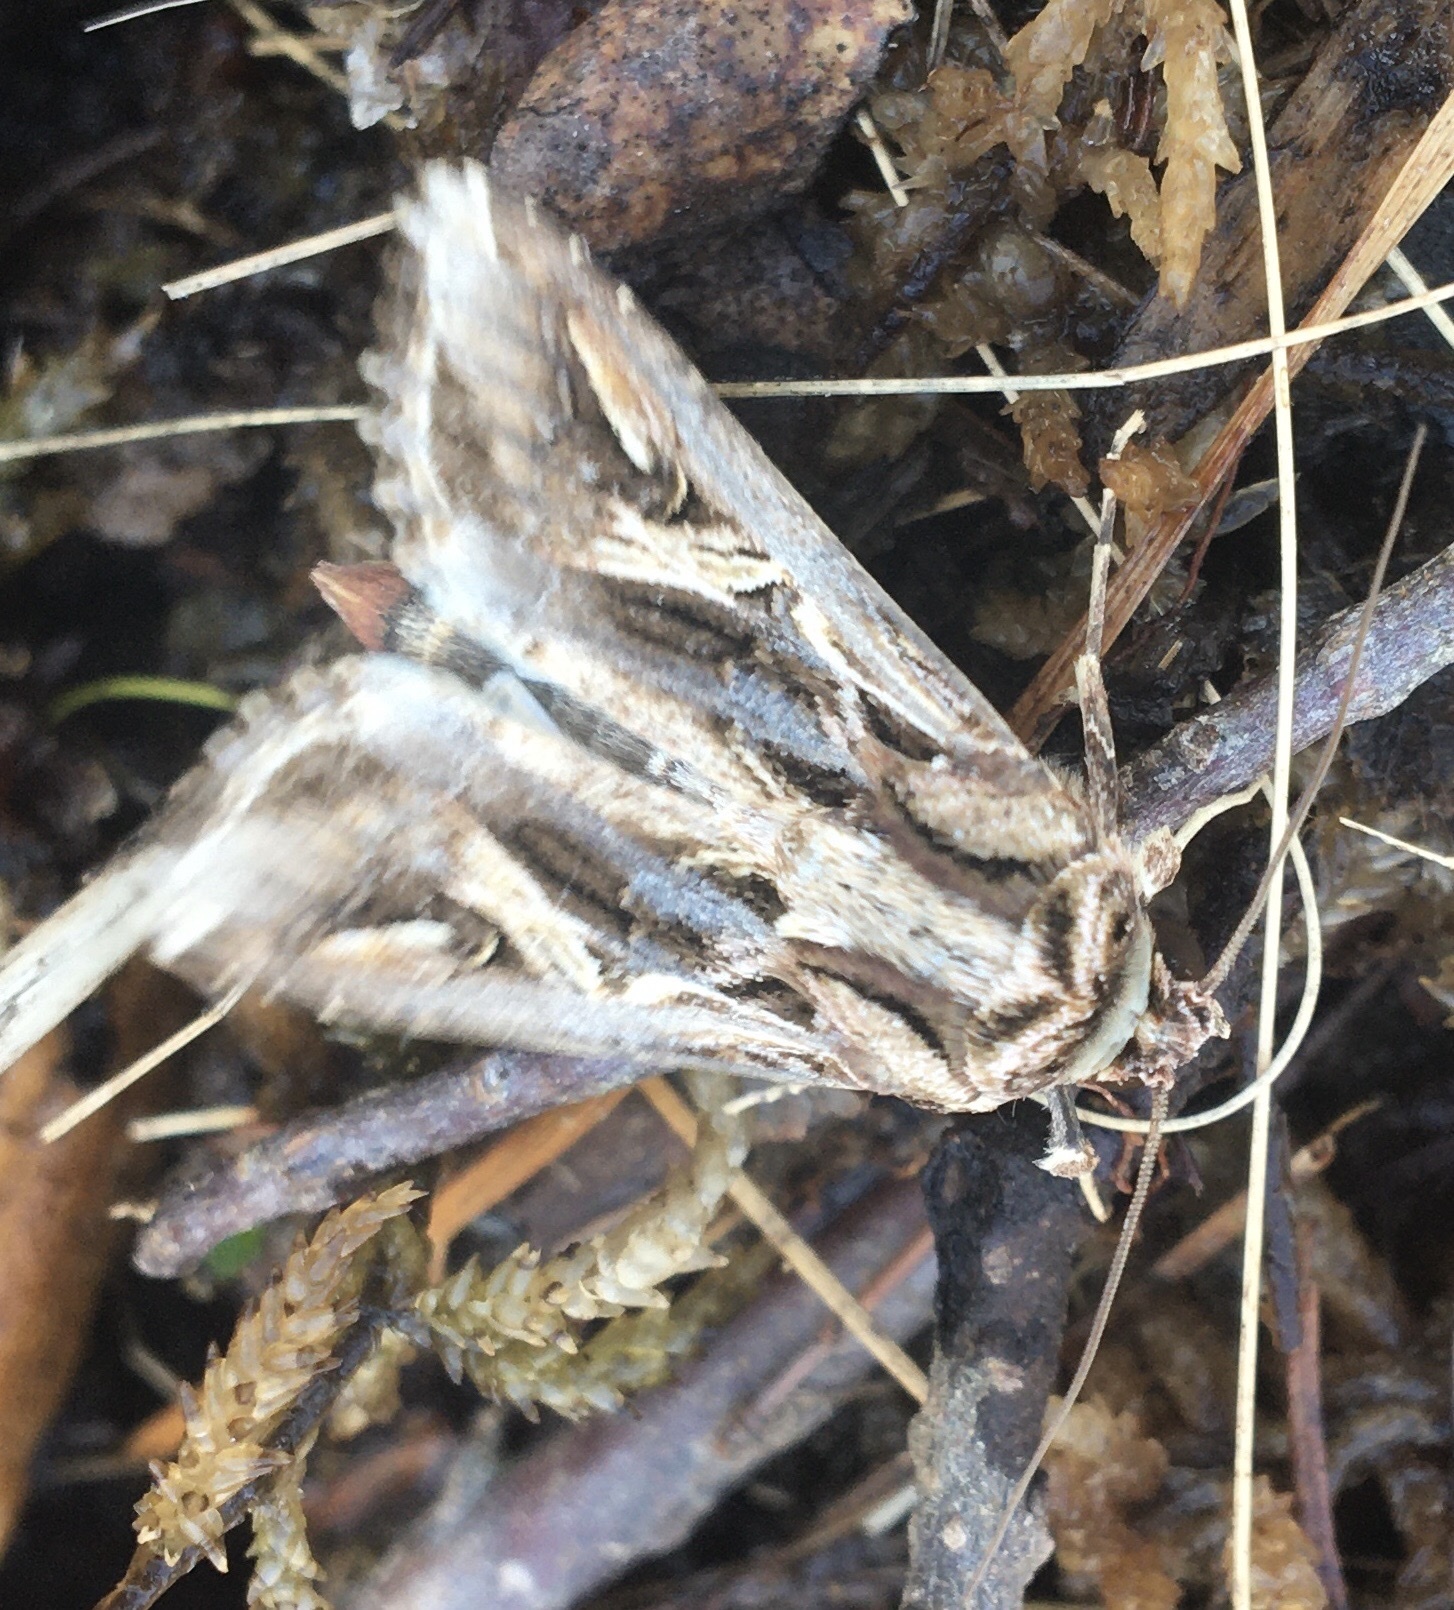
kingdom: Animalia
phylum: Arthropoda
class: Insecta
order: Lepidoptera
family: Noctuidae
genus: Spodoptera
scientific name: Spodoptera dolichos
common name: Sweetpotato armyworm
